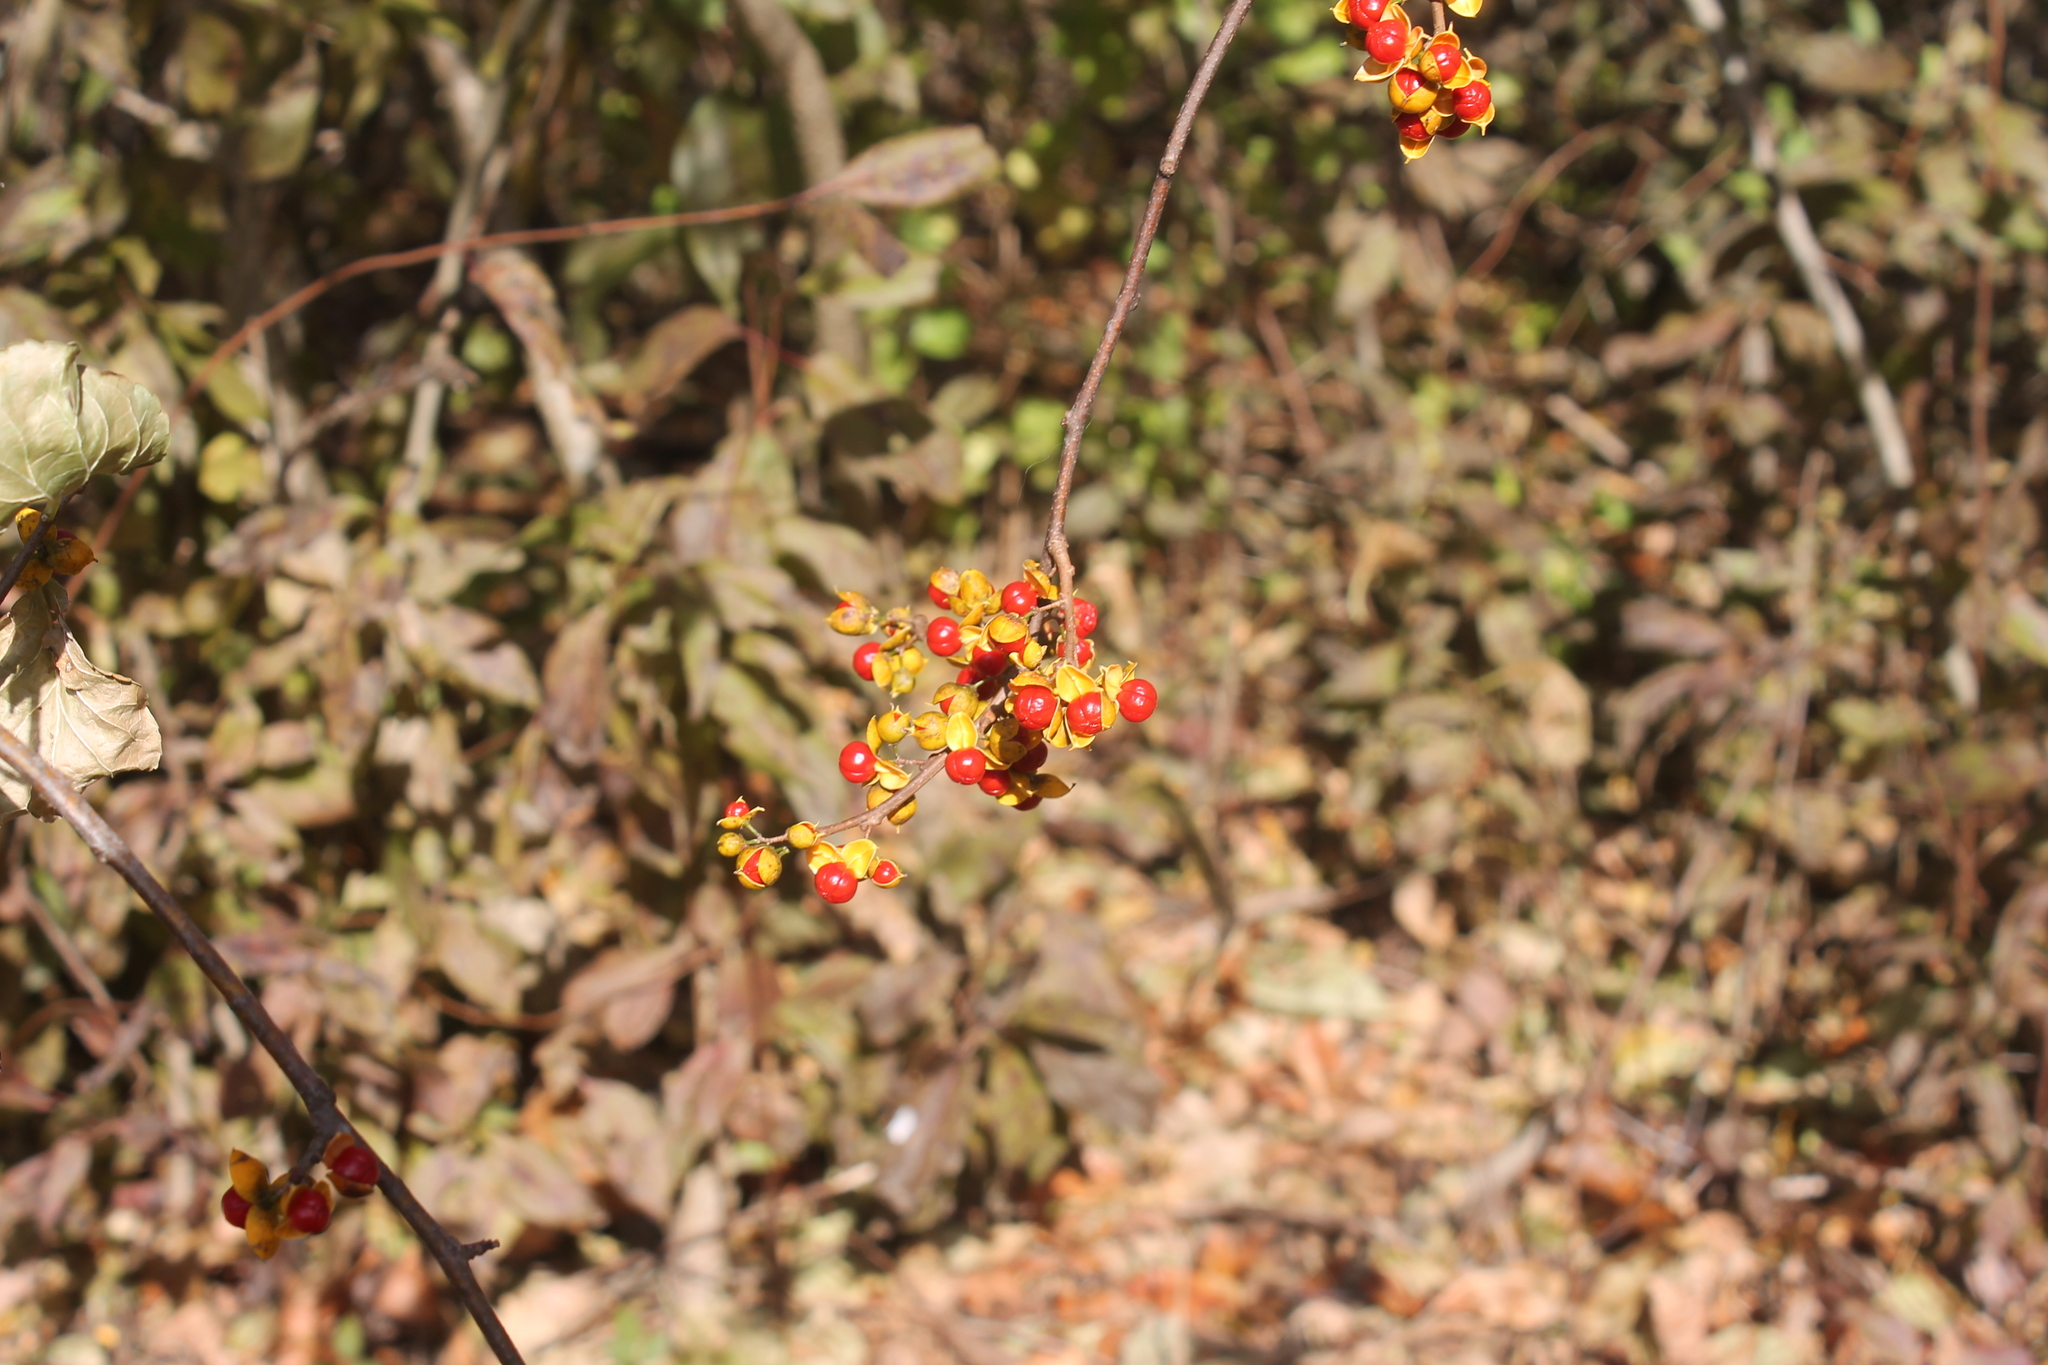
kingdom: Plantae
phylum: Tracheophyta
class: Magnoliopsida
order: Celastrales
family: Celastraceae
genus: Celastrus
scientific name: Celastrus orbiculatus
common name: Oriental bittersweet
